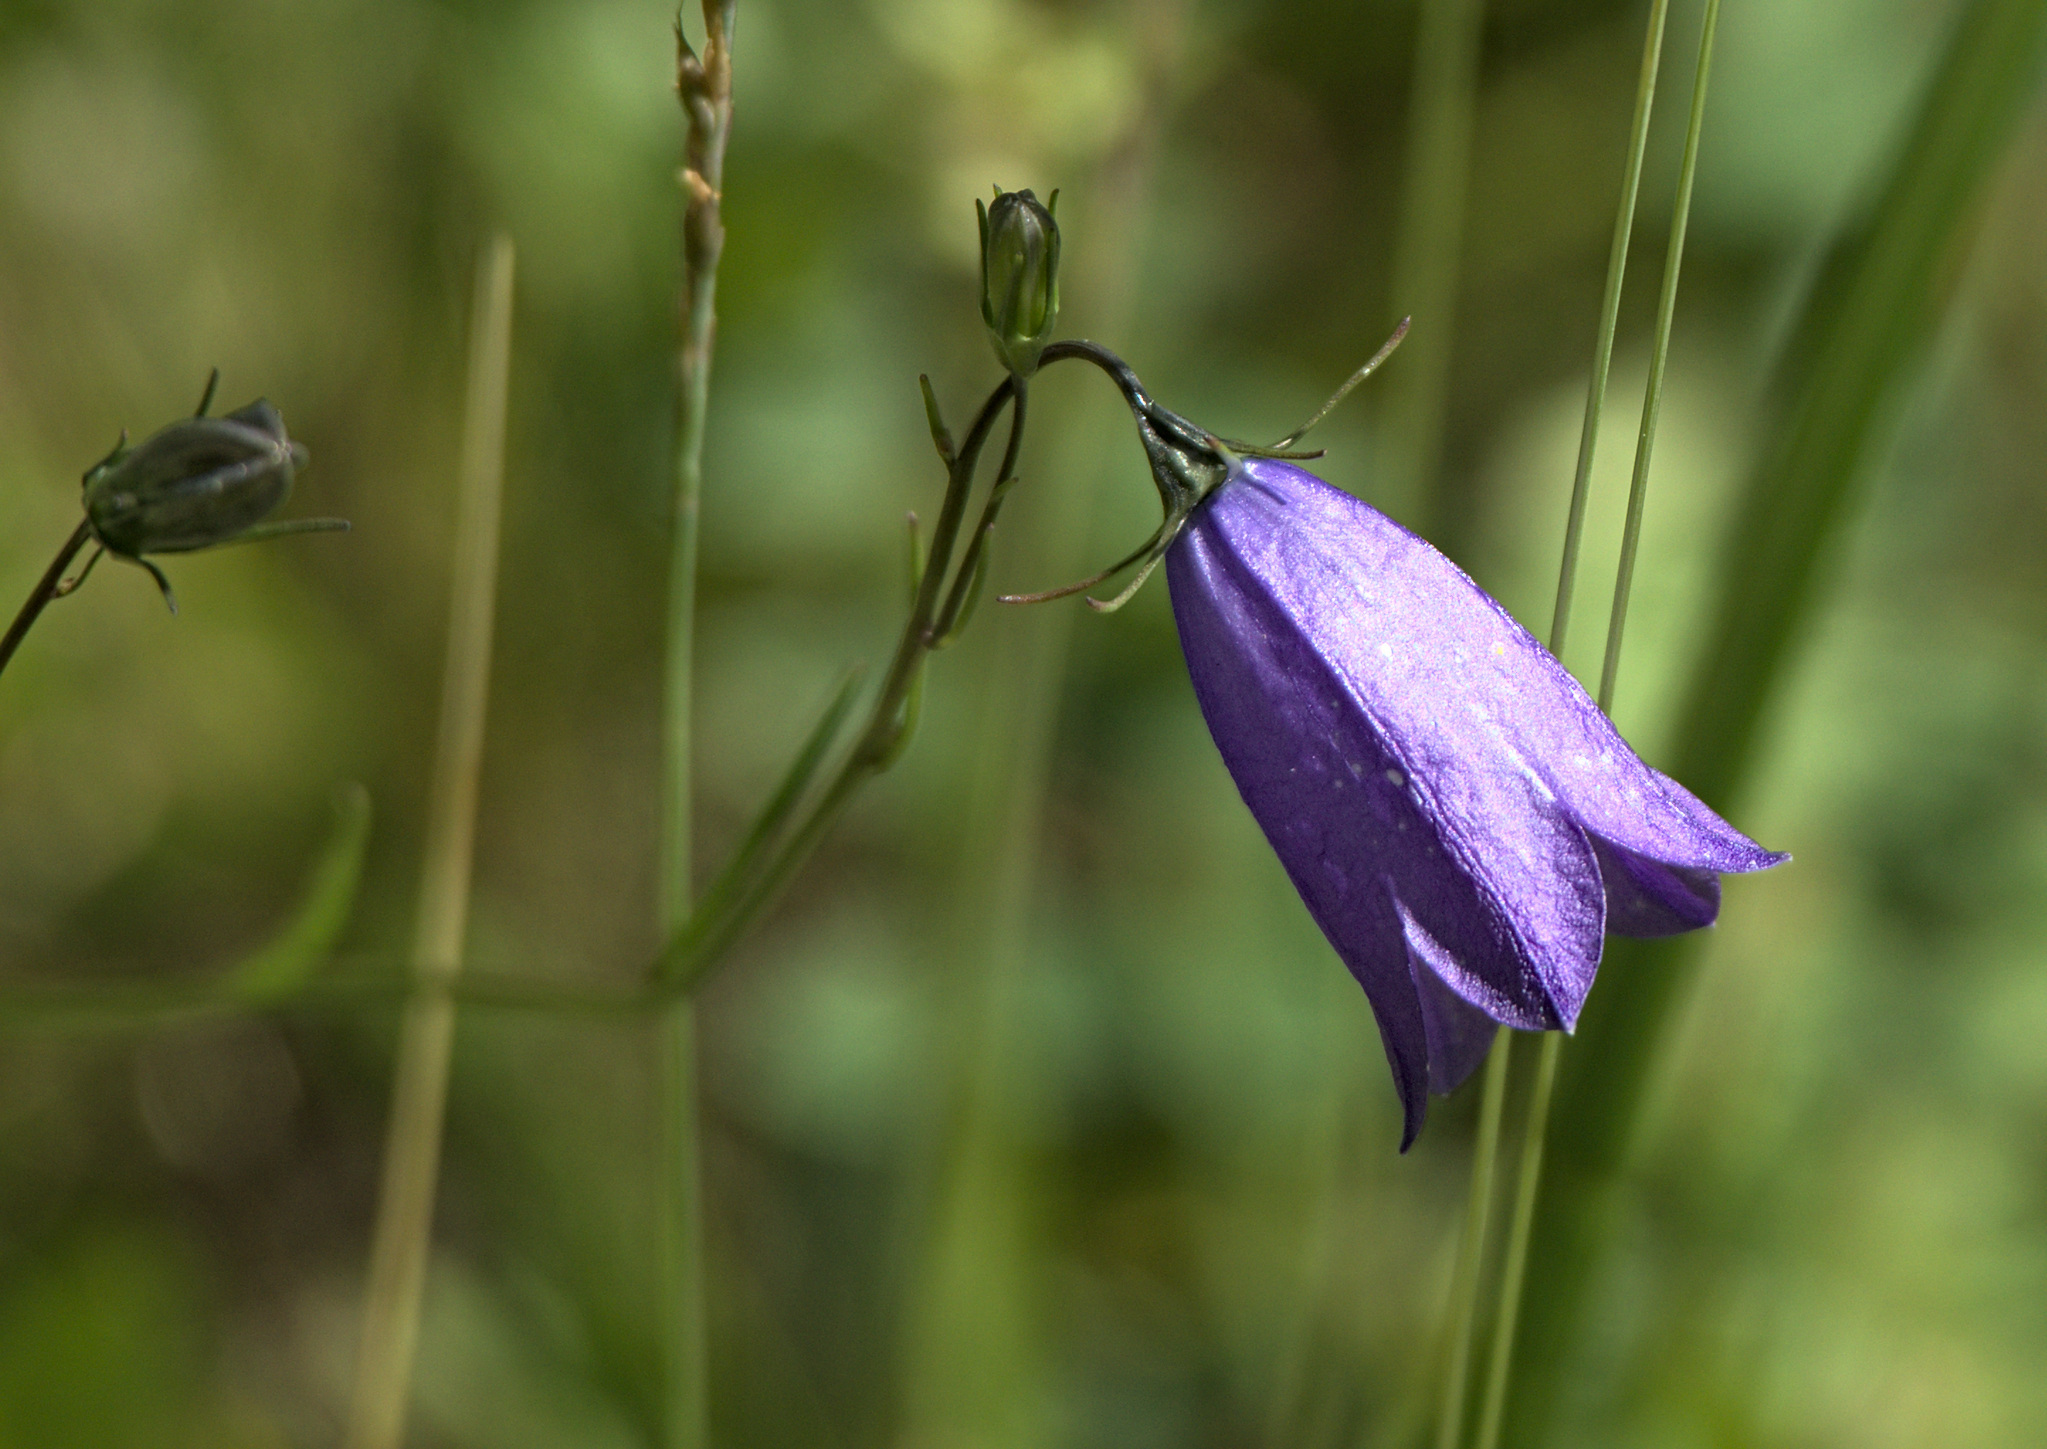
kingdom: Plantae
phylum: Tracheophyta
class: Magnoliopsida
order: Asterales
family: Campanulaceae
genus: Campanula
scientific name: Campanula rotundifolia
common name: Harebell
